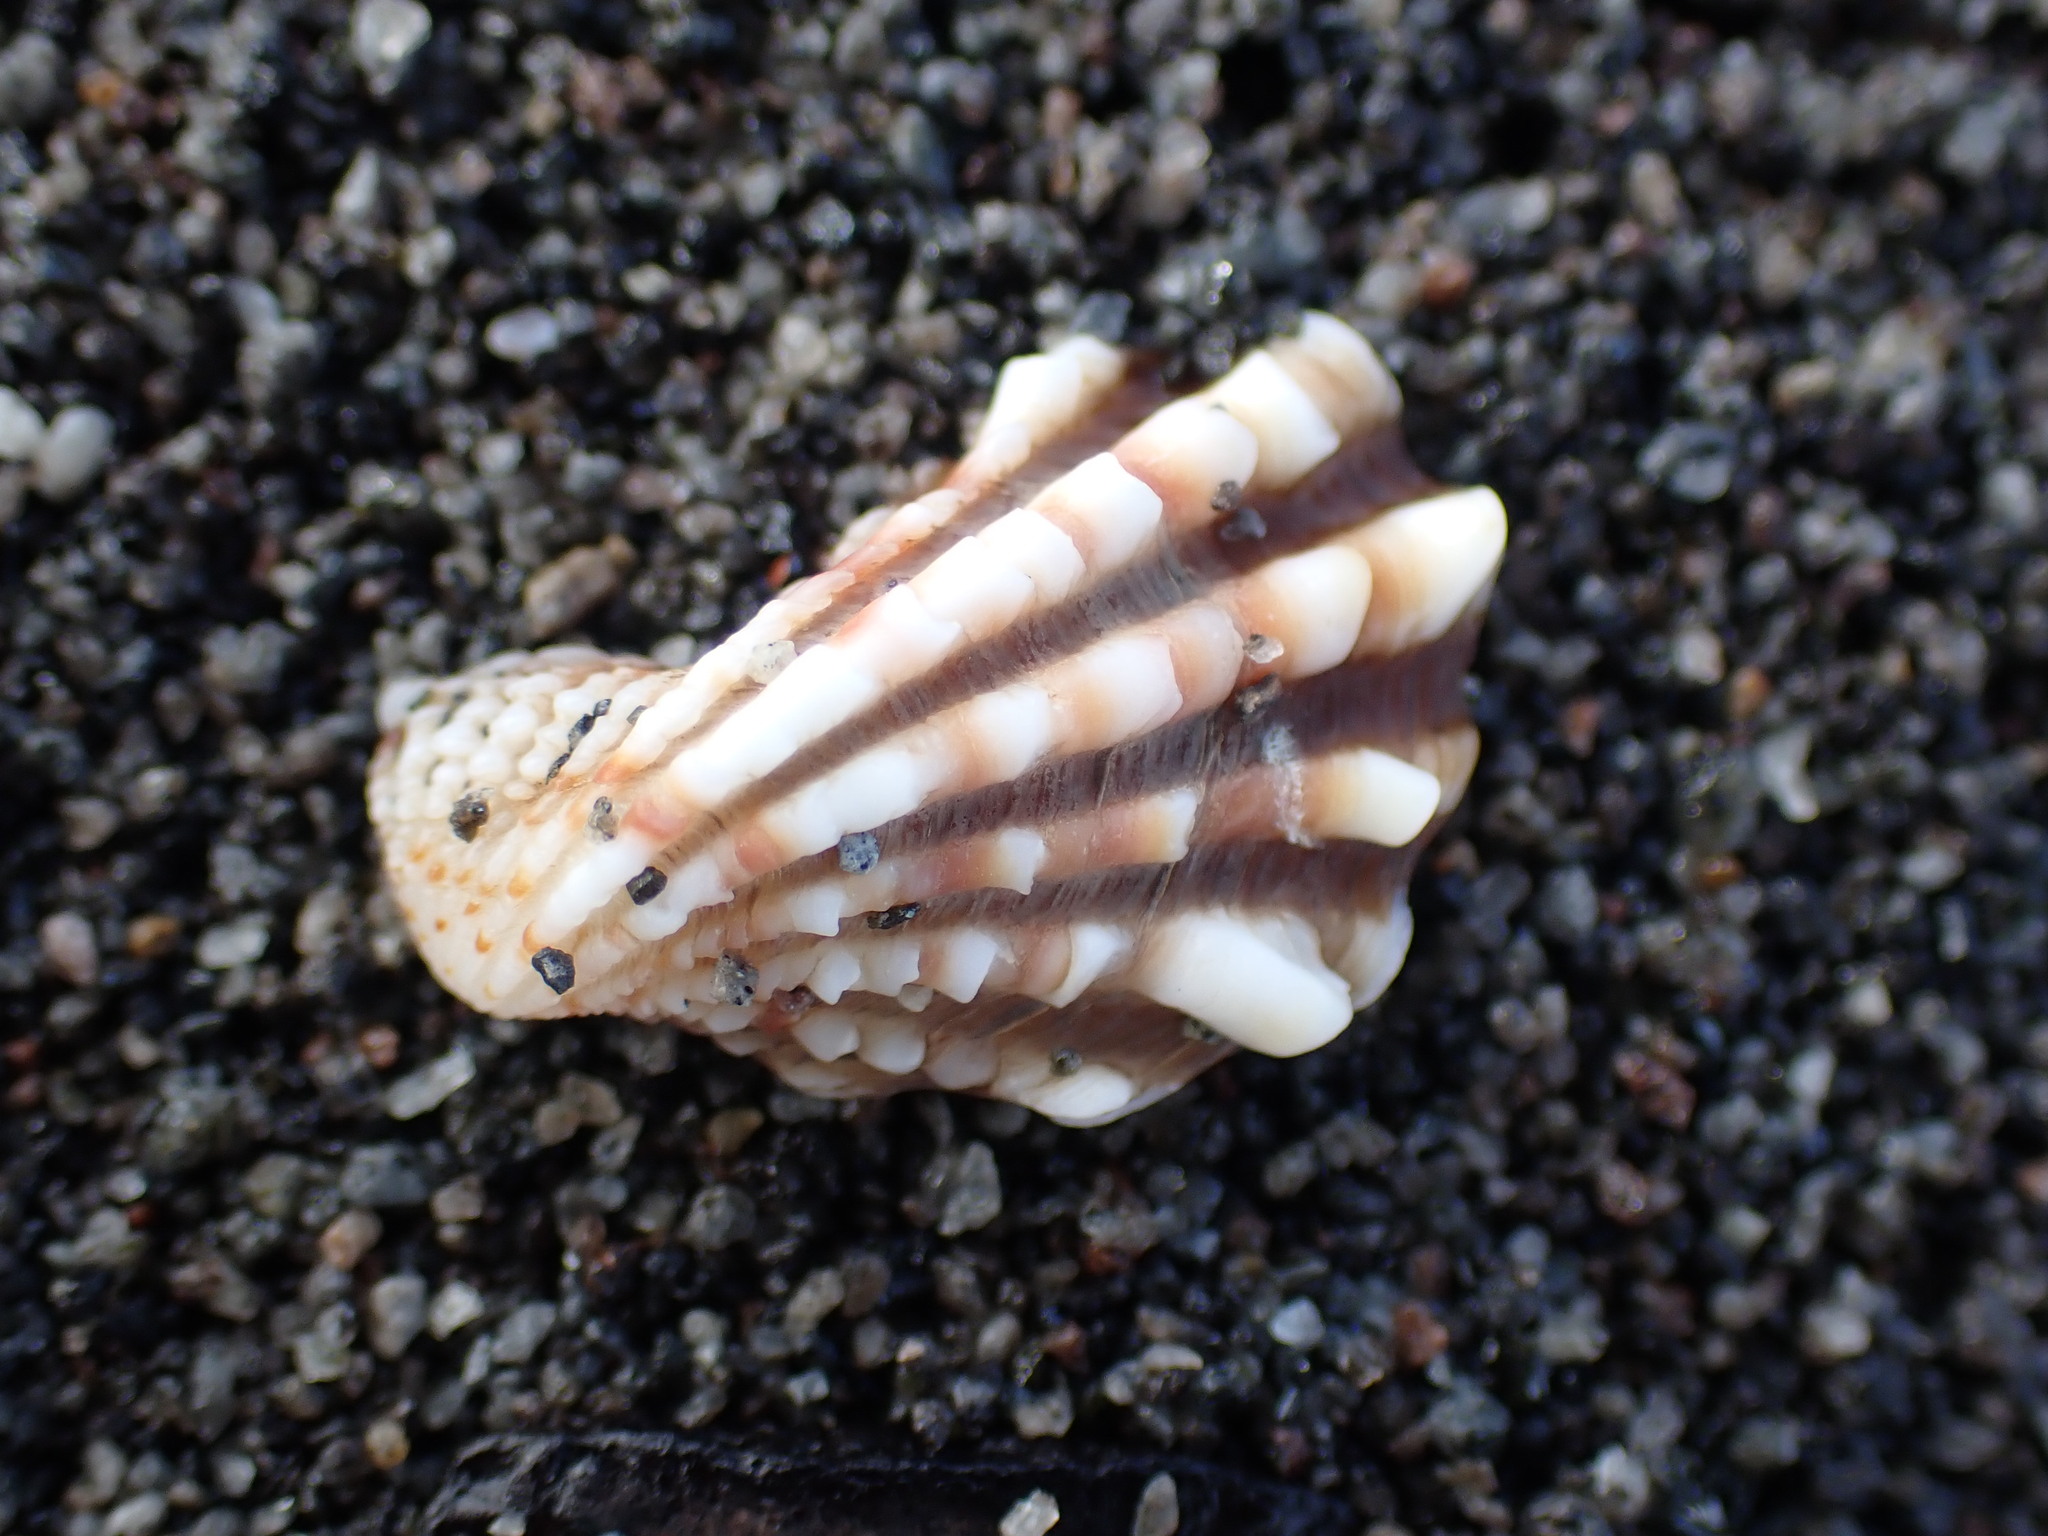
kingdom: Animalia
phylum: Mollusca
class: Bivalvia
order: Carditida
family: Carditidae
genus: Cardita
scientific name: Cardita distorta
